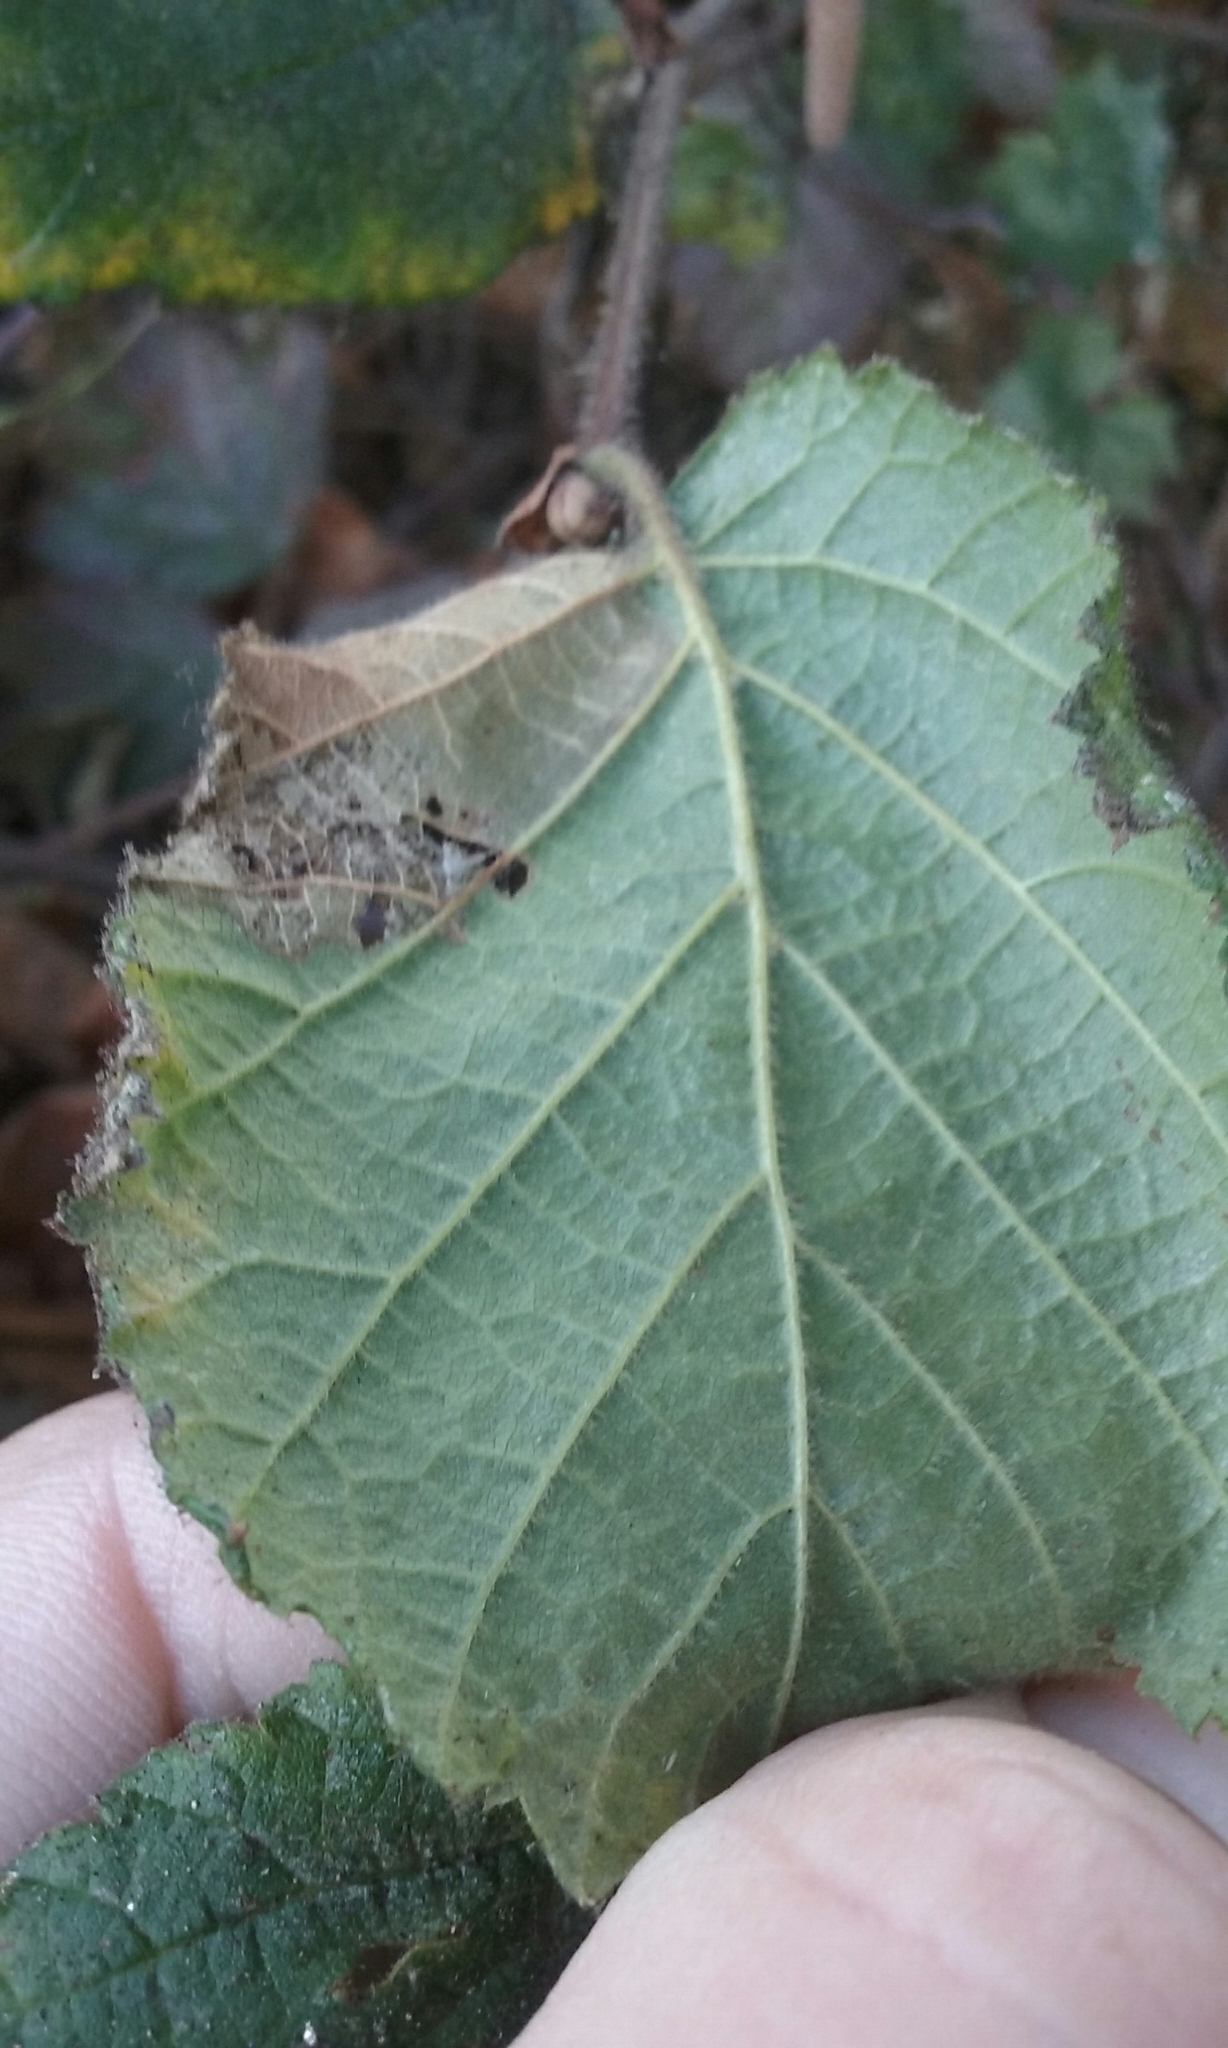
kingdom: Plantae
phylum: Tracheophyta
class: Magnoliopsida
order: Fagales
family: Betulaceae
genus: Corylus
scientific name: Corylus cornuta
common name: Beaked hazel
